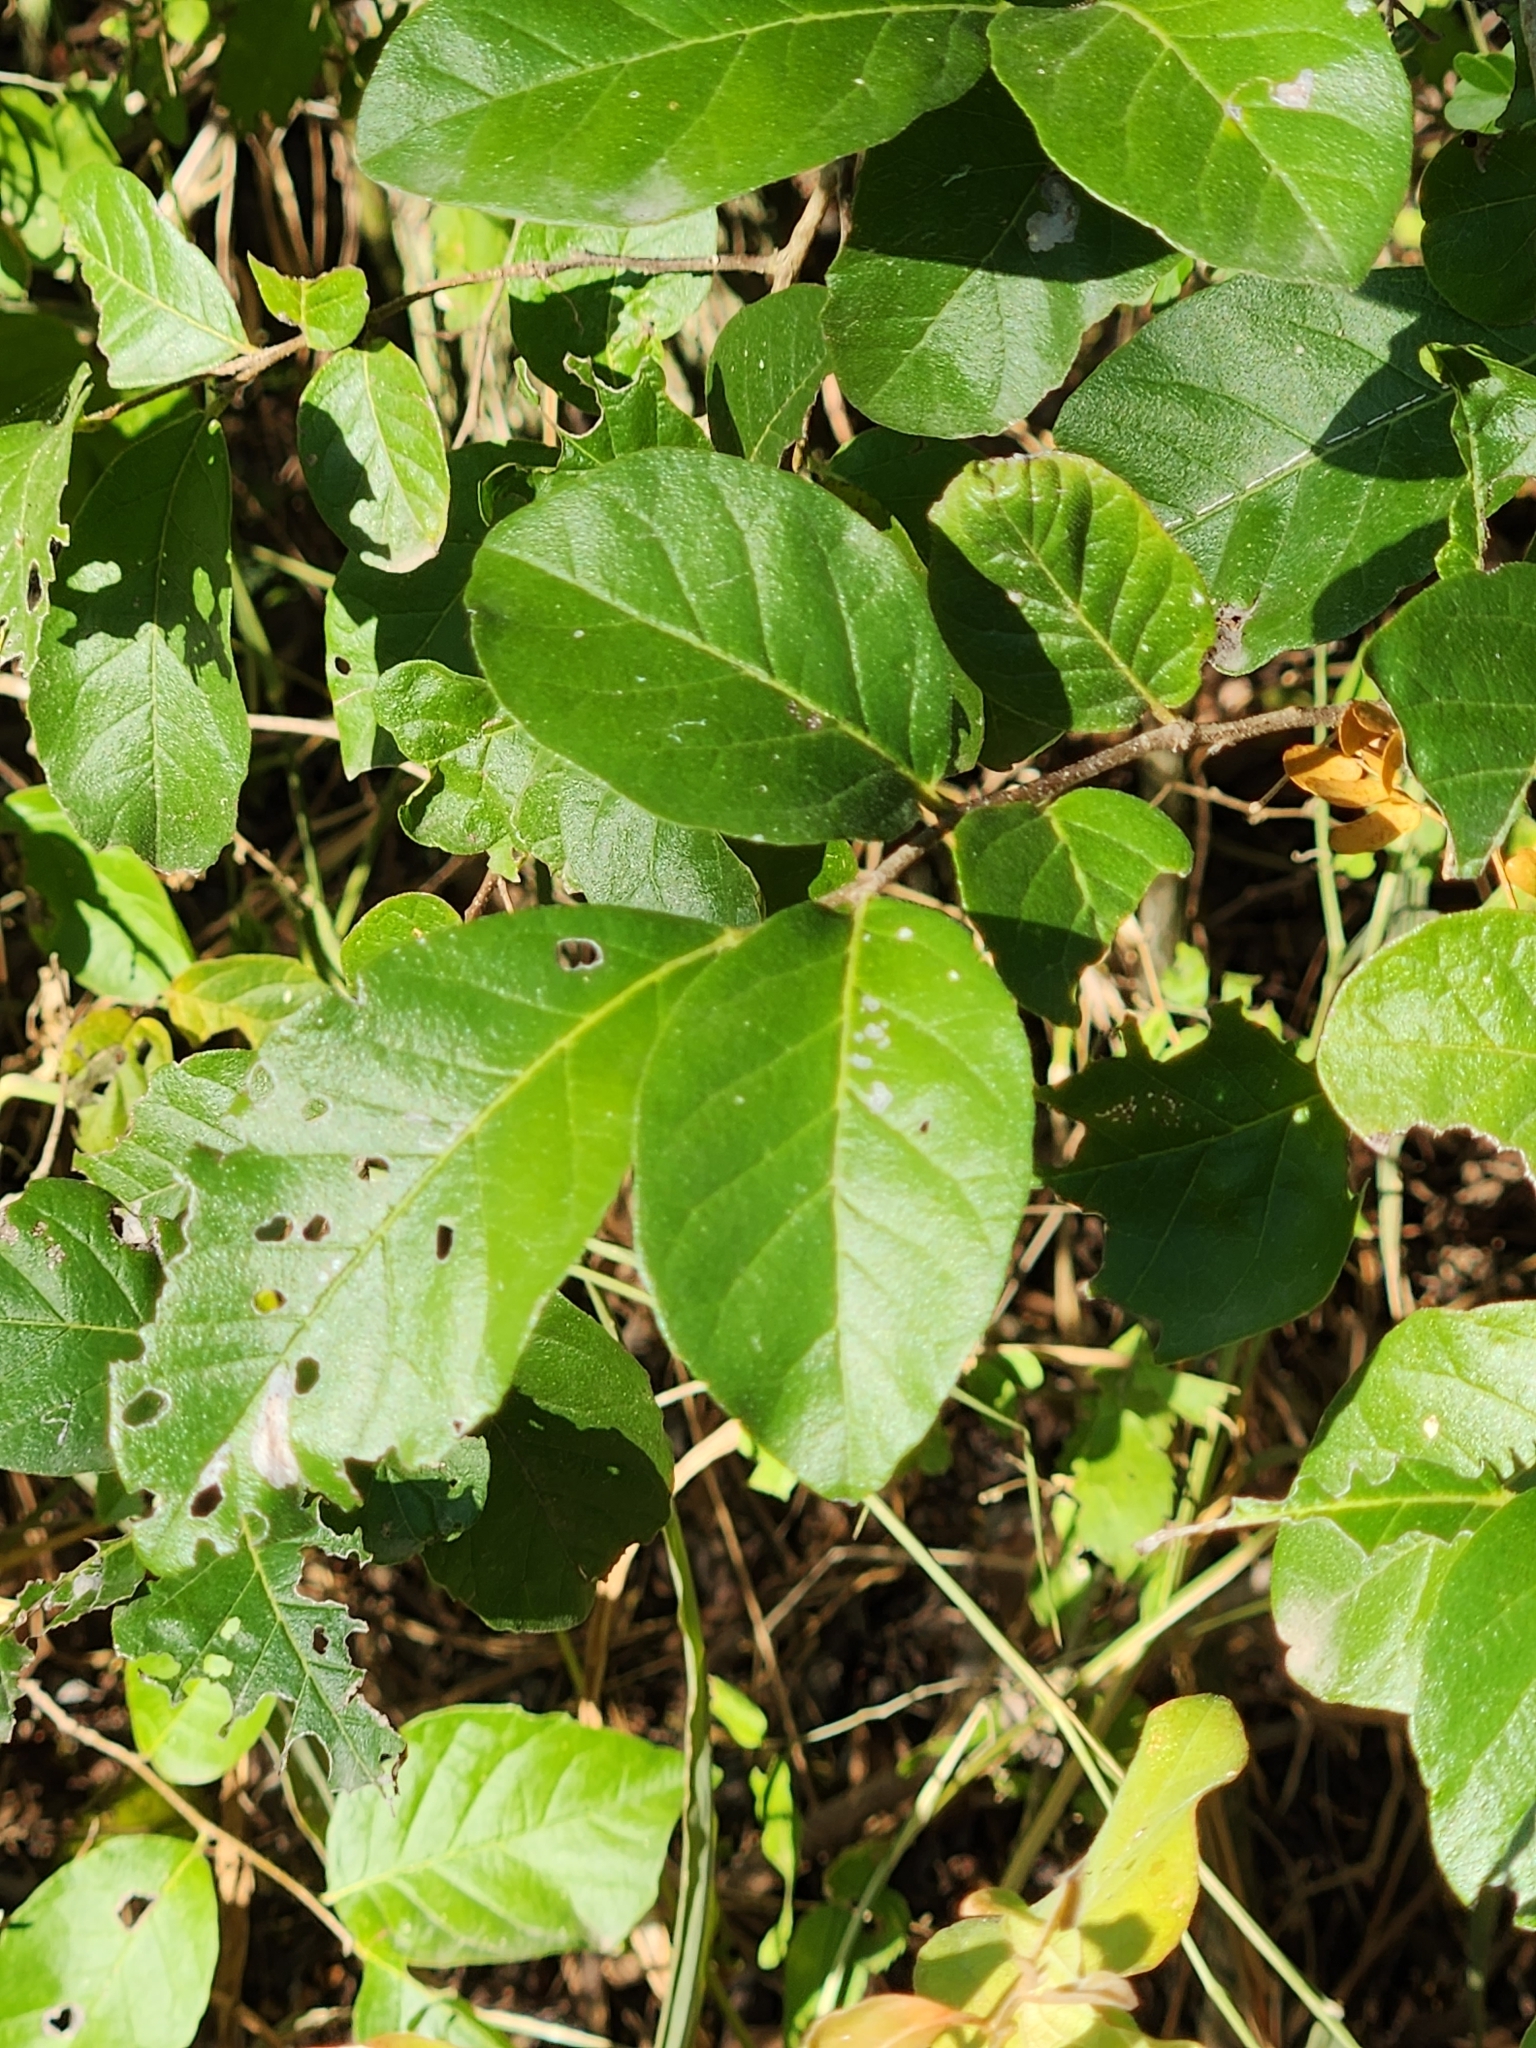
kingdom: Plantae
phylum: Tracheophyta
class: Magnoliopsida
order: Boraginales
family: Ehretiaceae
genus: Ehretia
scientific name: Ehretia anacua
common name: Sugarberry
